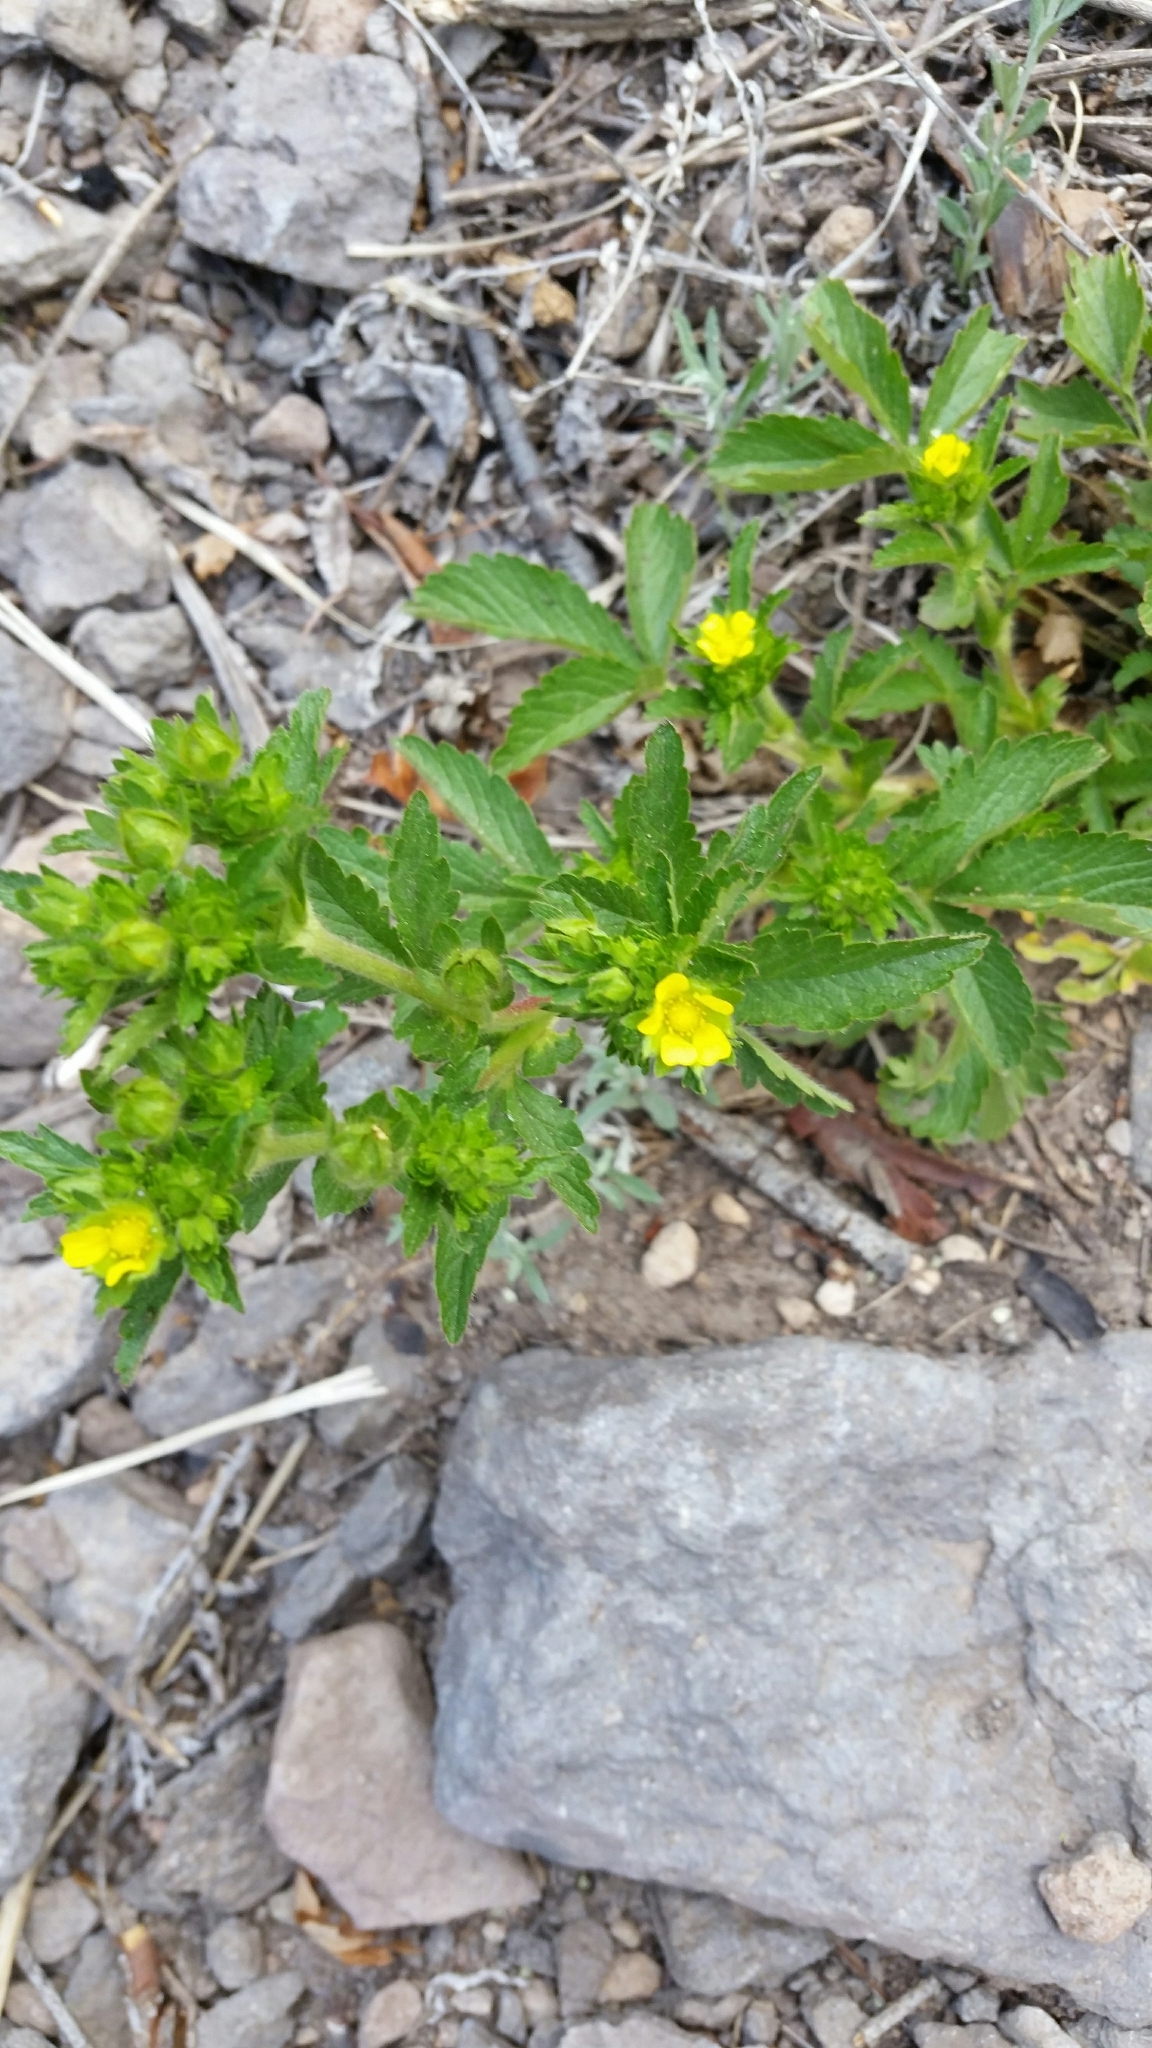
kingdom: Plantae
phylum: Tracheophyta
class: Magnoliopsida
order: Rosales
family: Rosaceae
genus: Potentilla
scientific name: Potentilla norvegica
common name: Ternate-leaved cinquefoil
